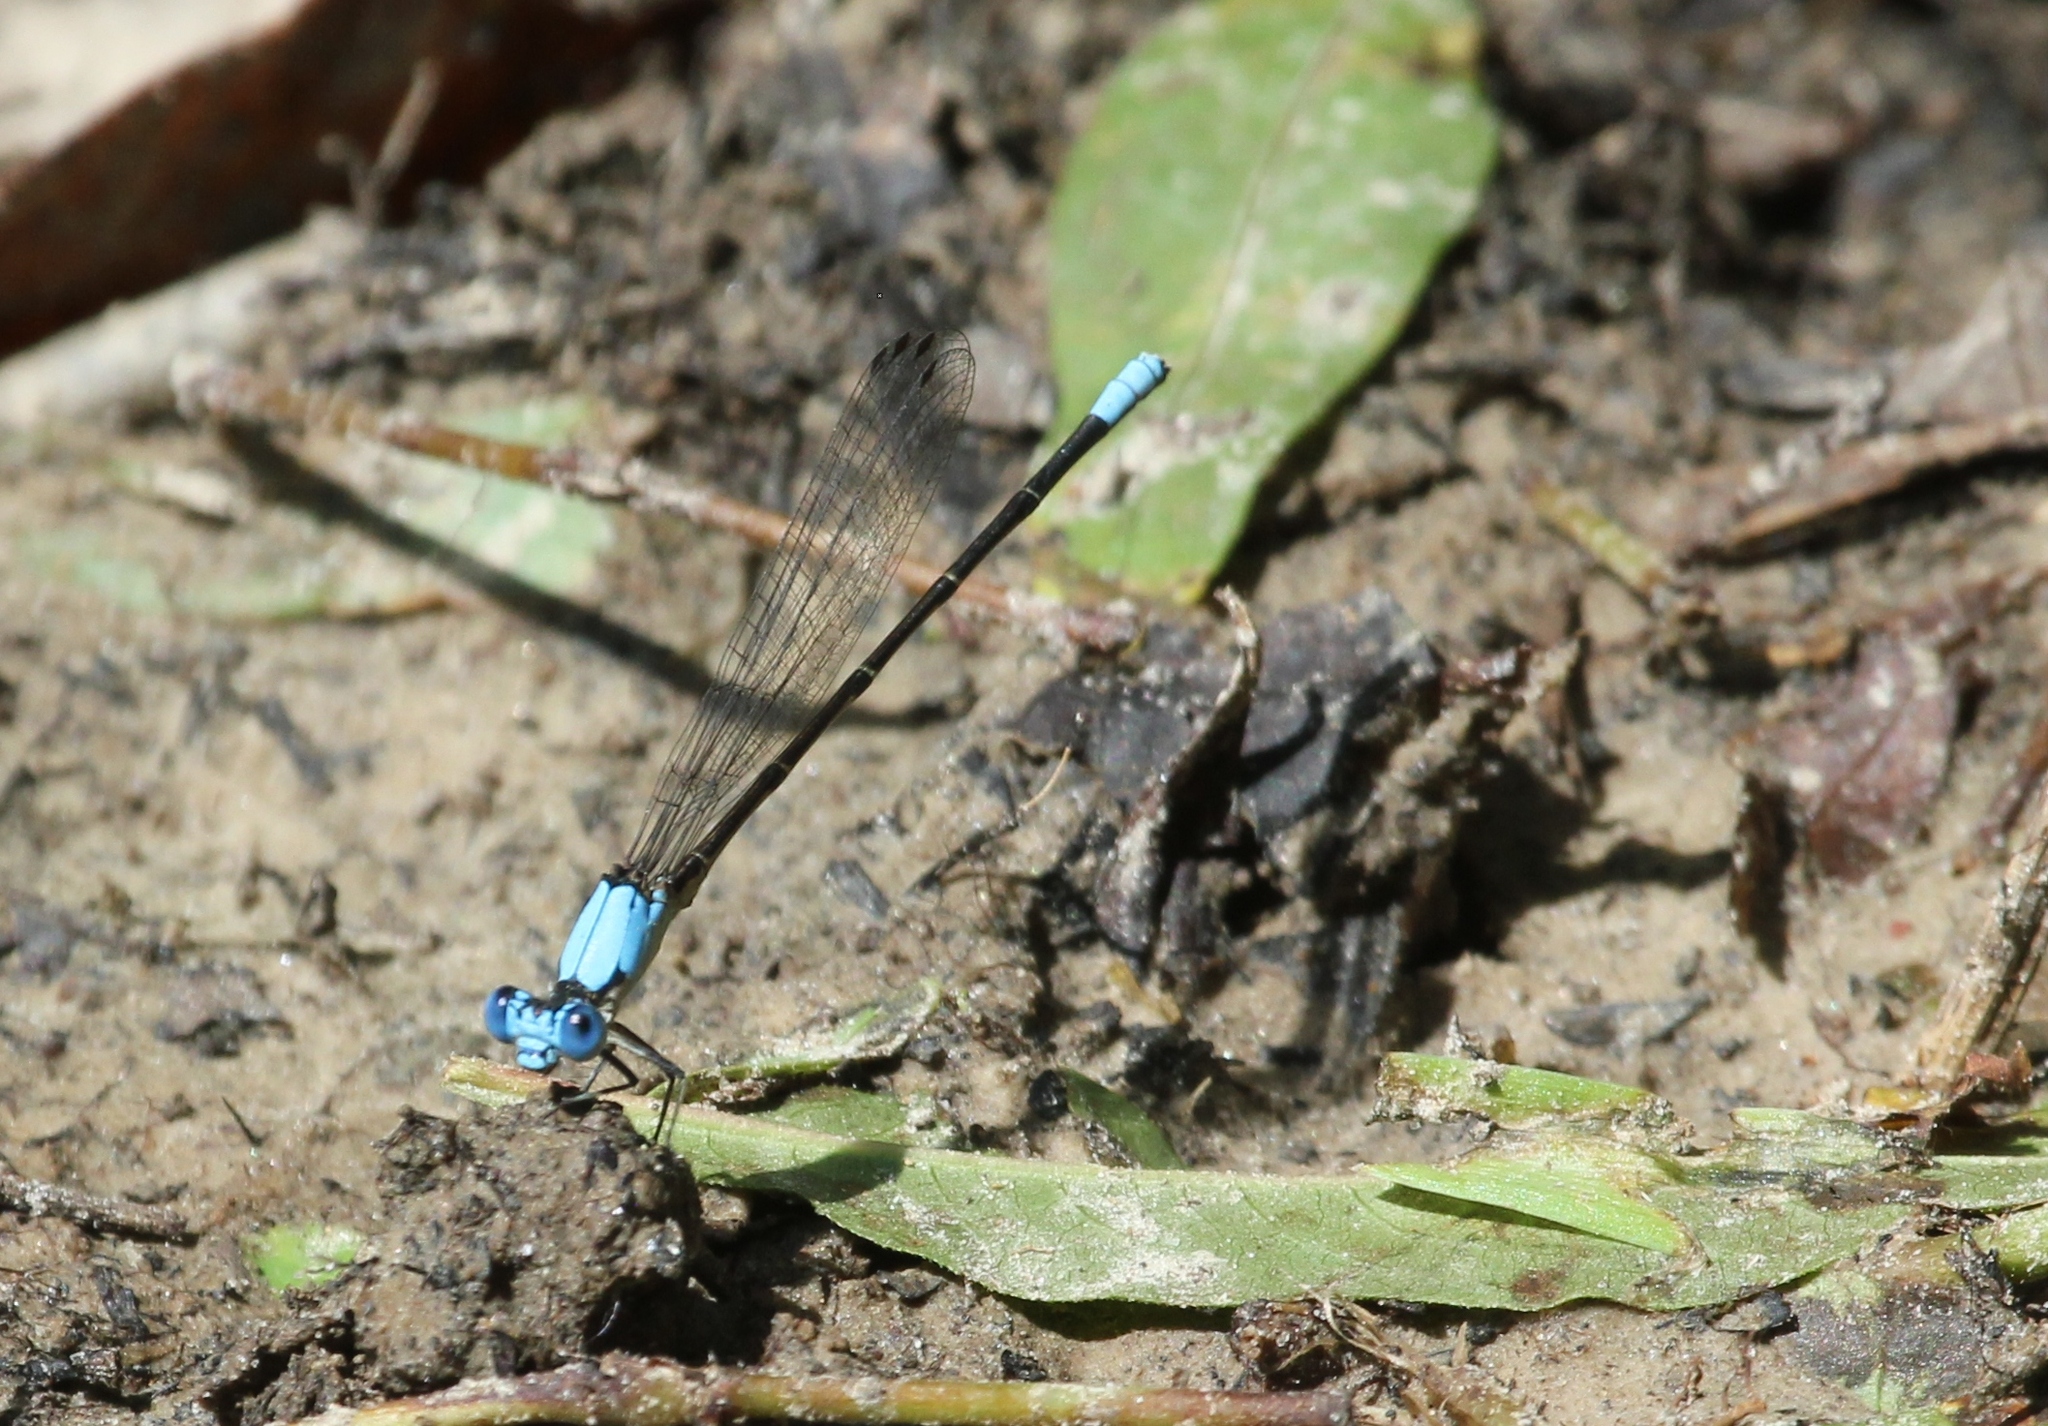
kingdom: Animalia
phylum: Arthropoda
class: Insecta
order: Odonata
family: Coenagrionidae
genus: Argia
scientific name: Argia apicalis
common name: Blue-fronted dancer
